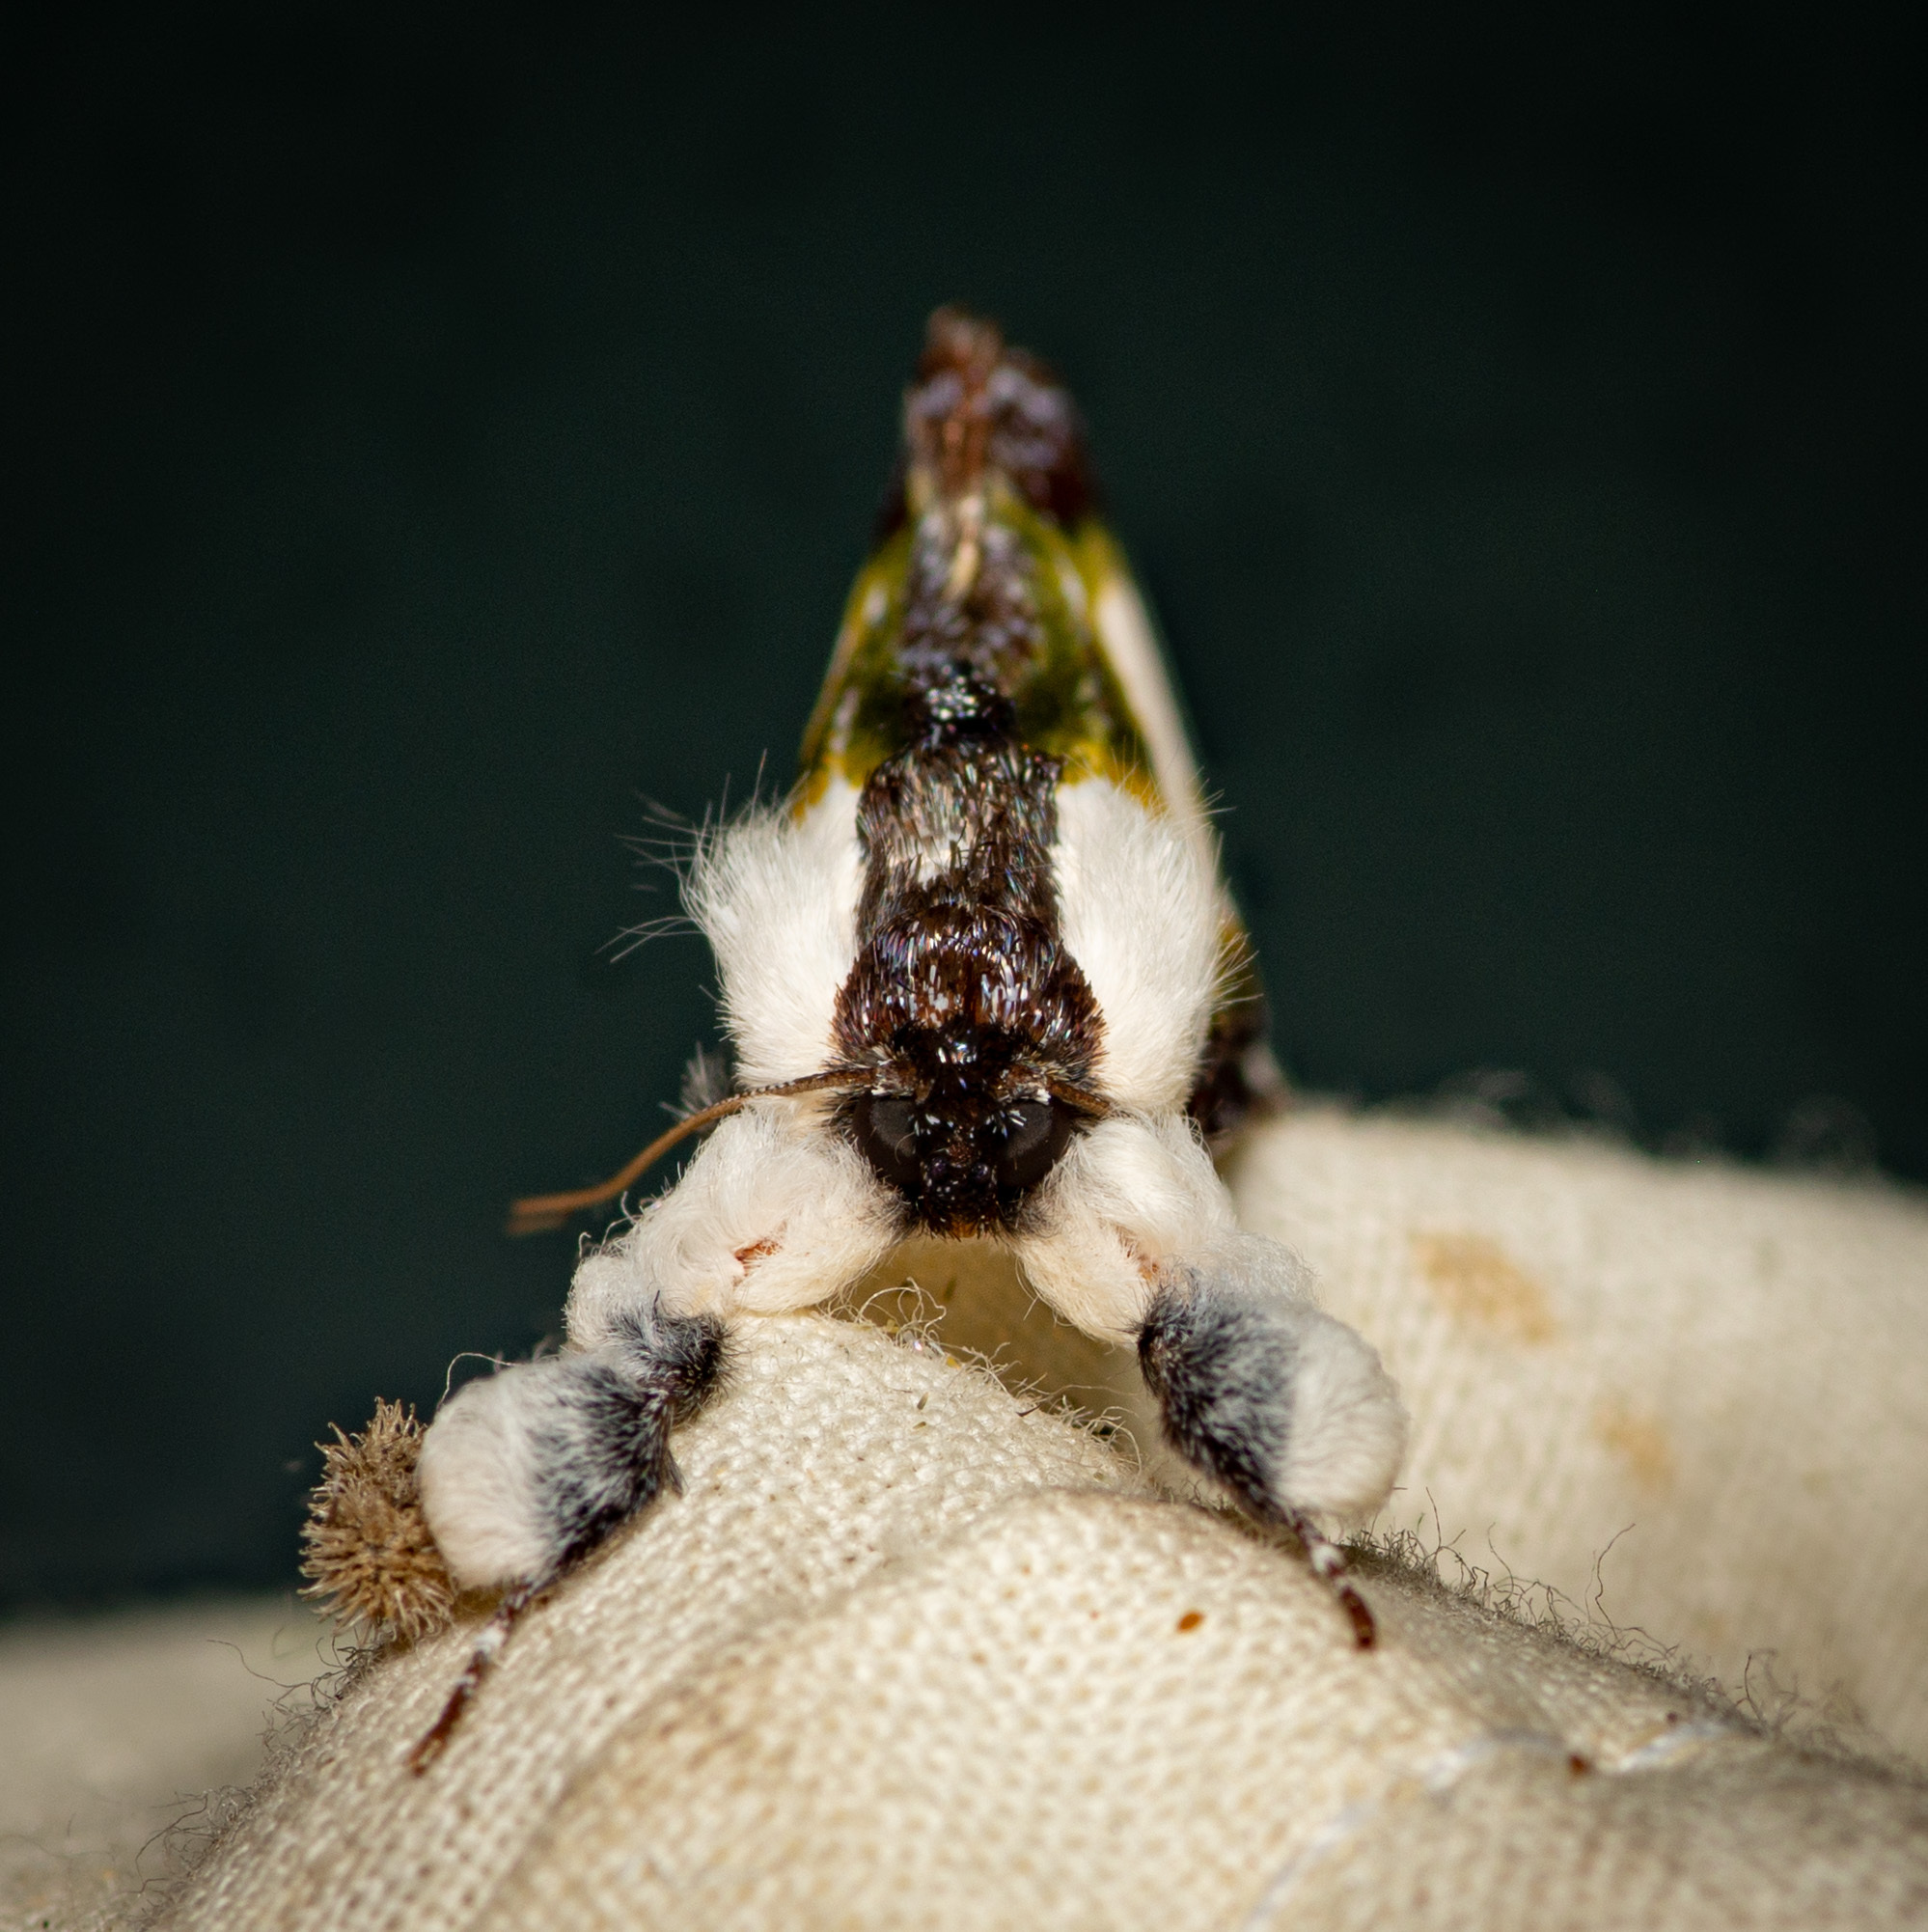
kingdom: Animalia
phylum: Arthropoda
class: Insecta
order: Lepidoptera
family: Noctuidae
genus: Eudryas
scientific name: Eudryas grata
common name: Beautiful wood-nymph
